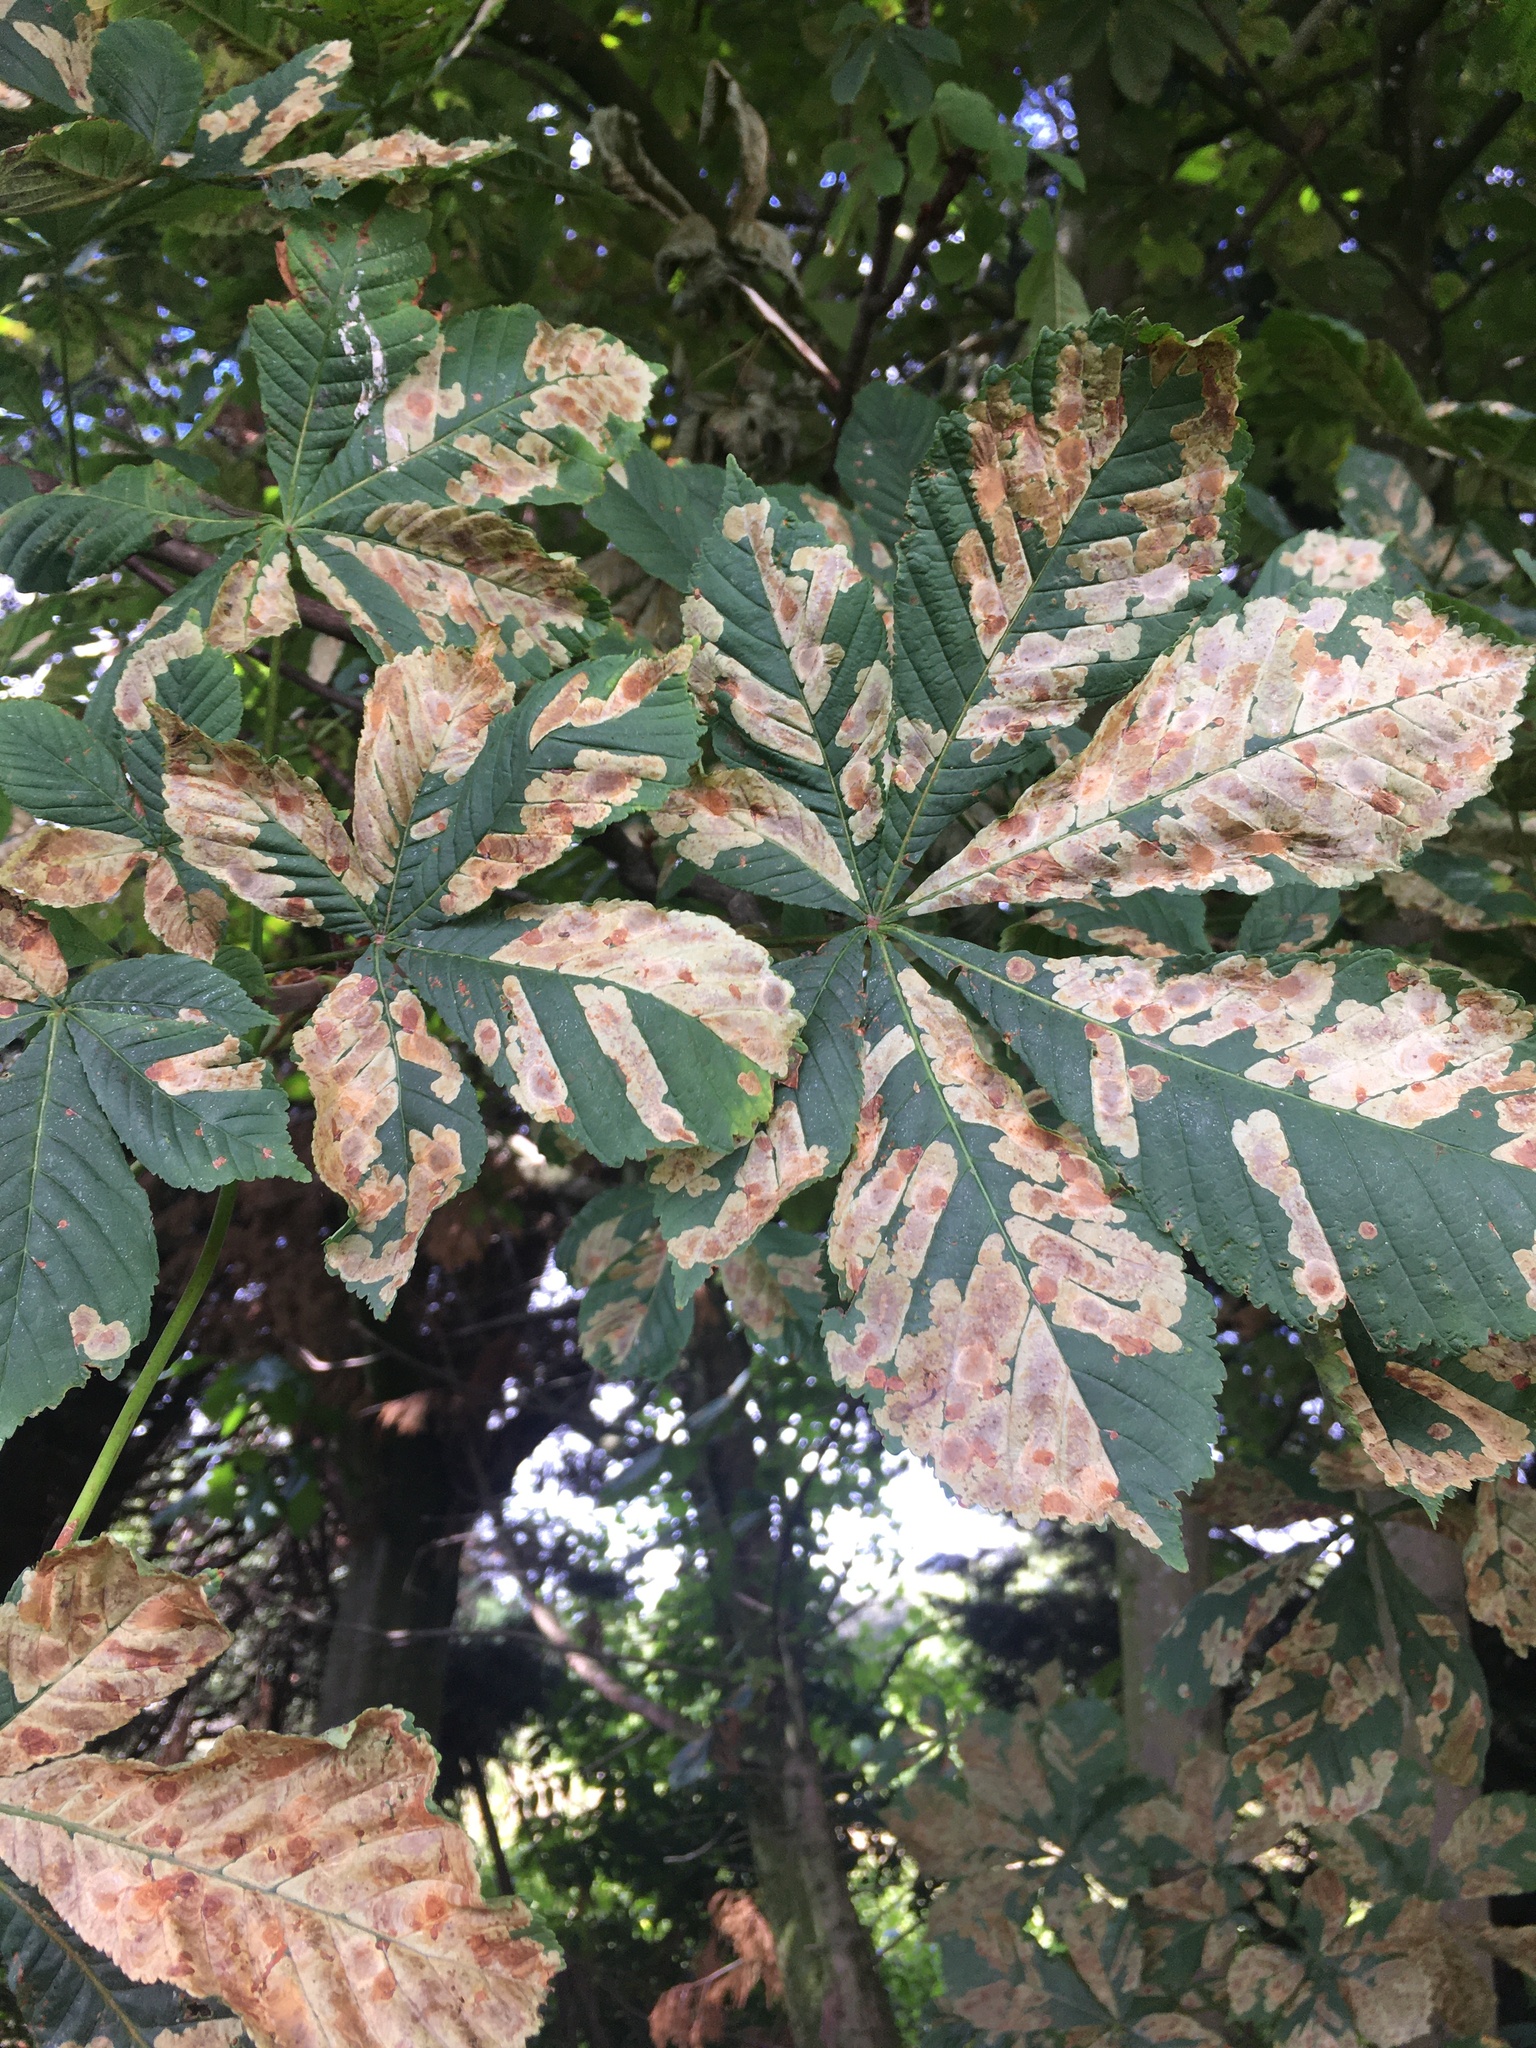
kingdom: Animalia
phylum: Arthropoda
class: Insecta
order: Lepidoptera
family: Gracillariidae
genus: Cameraria
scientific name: Cameraria ohridella
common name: Horse-chestnut leaf-miner
